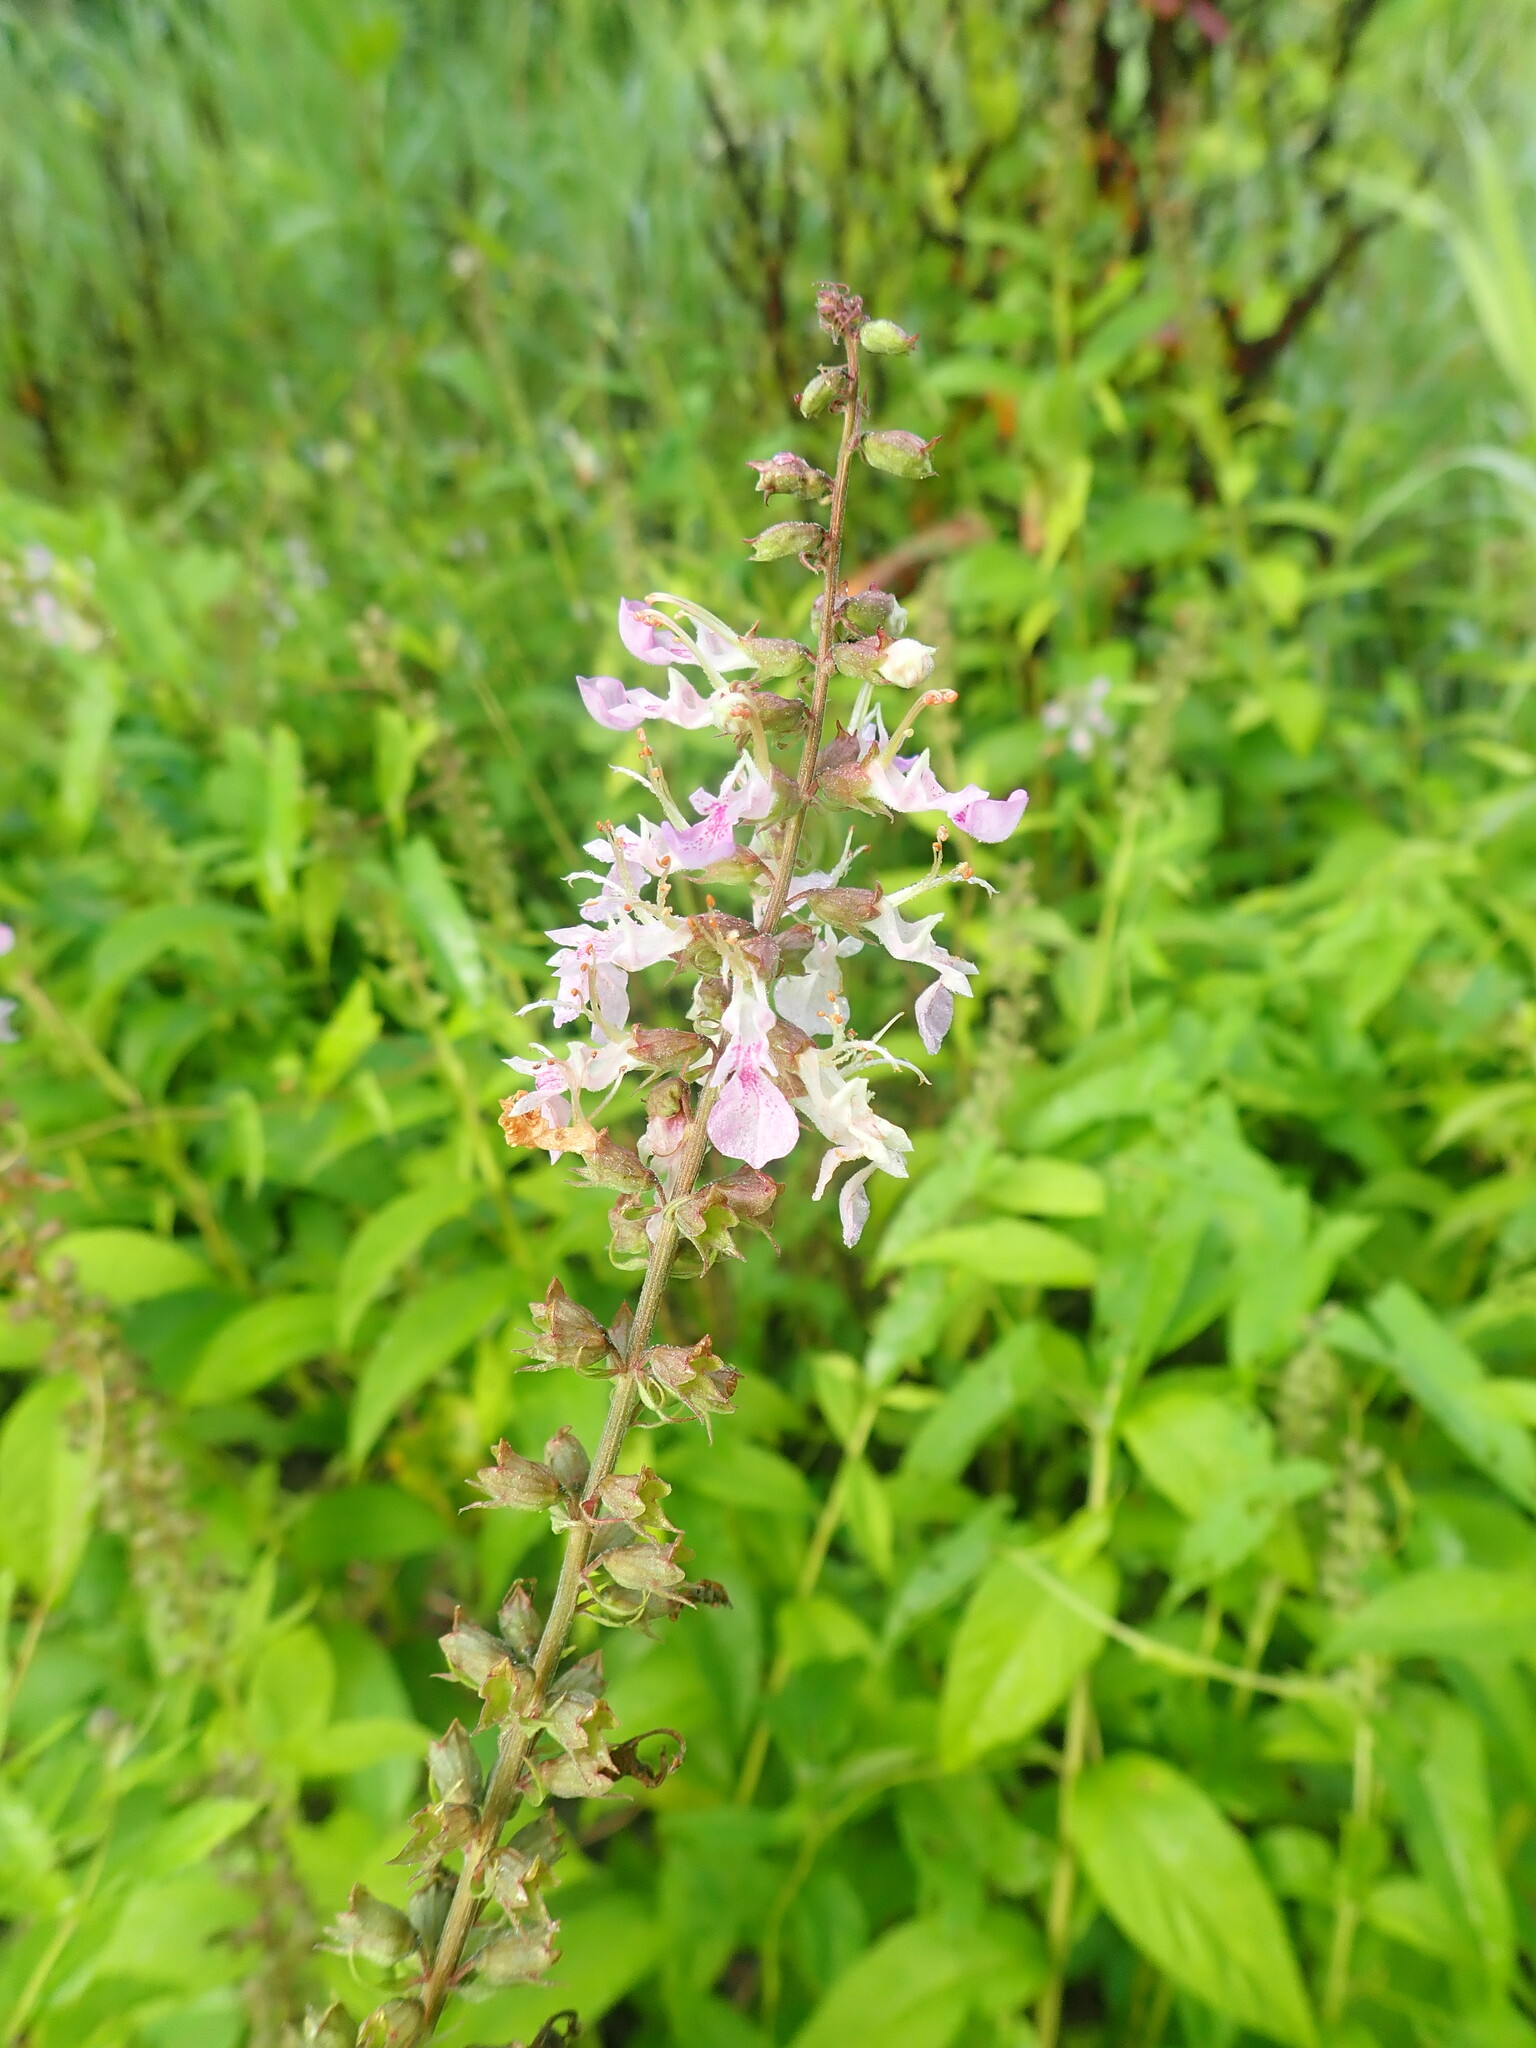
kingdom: Plantae
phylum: Tracheophyta
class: Magnoliopsida
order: Lamiales
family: Lamiaceae
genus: Teucrium
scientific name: Teucrium canadense
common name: American germander
